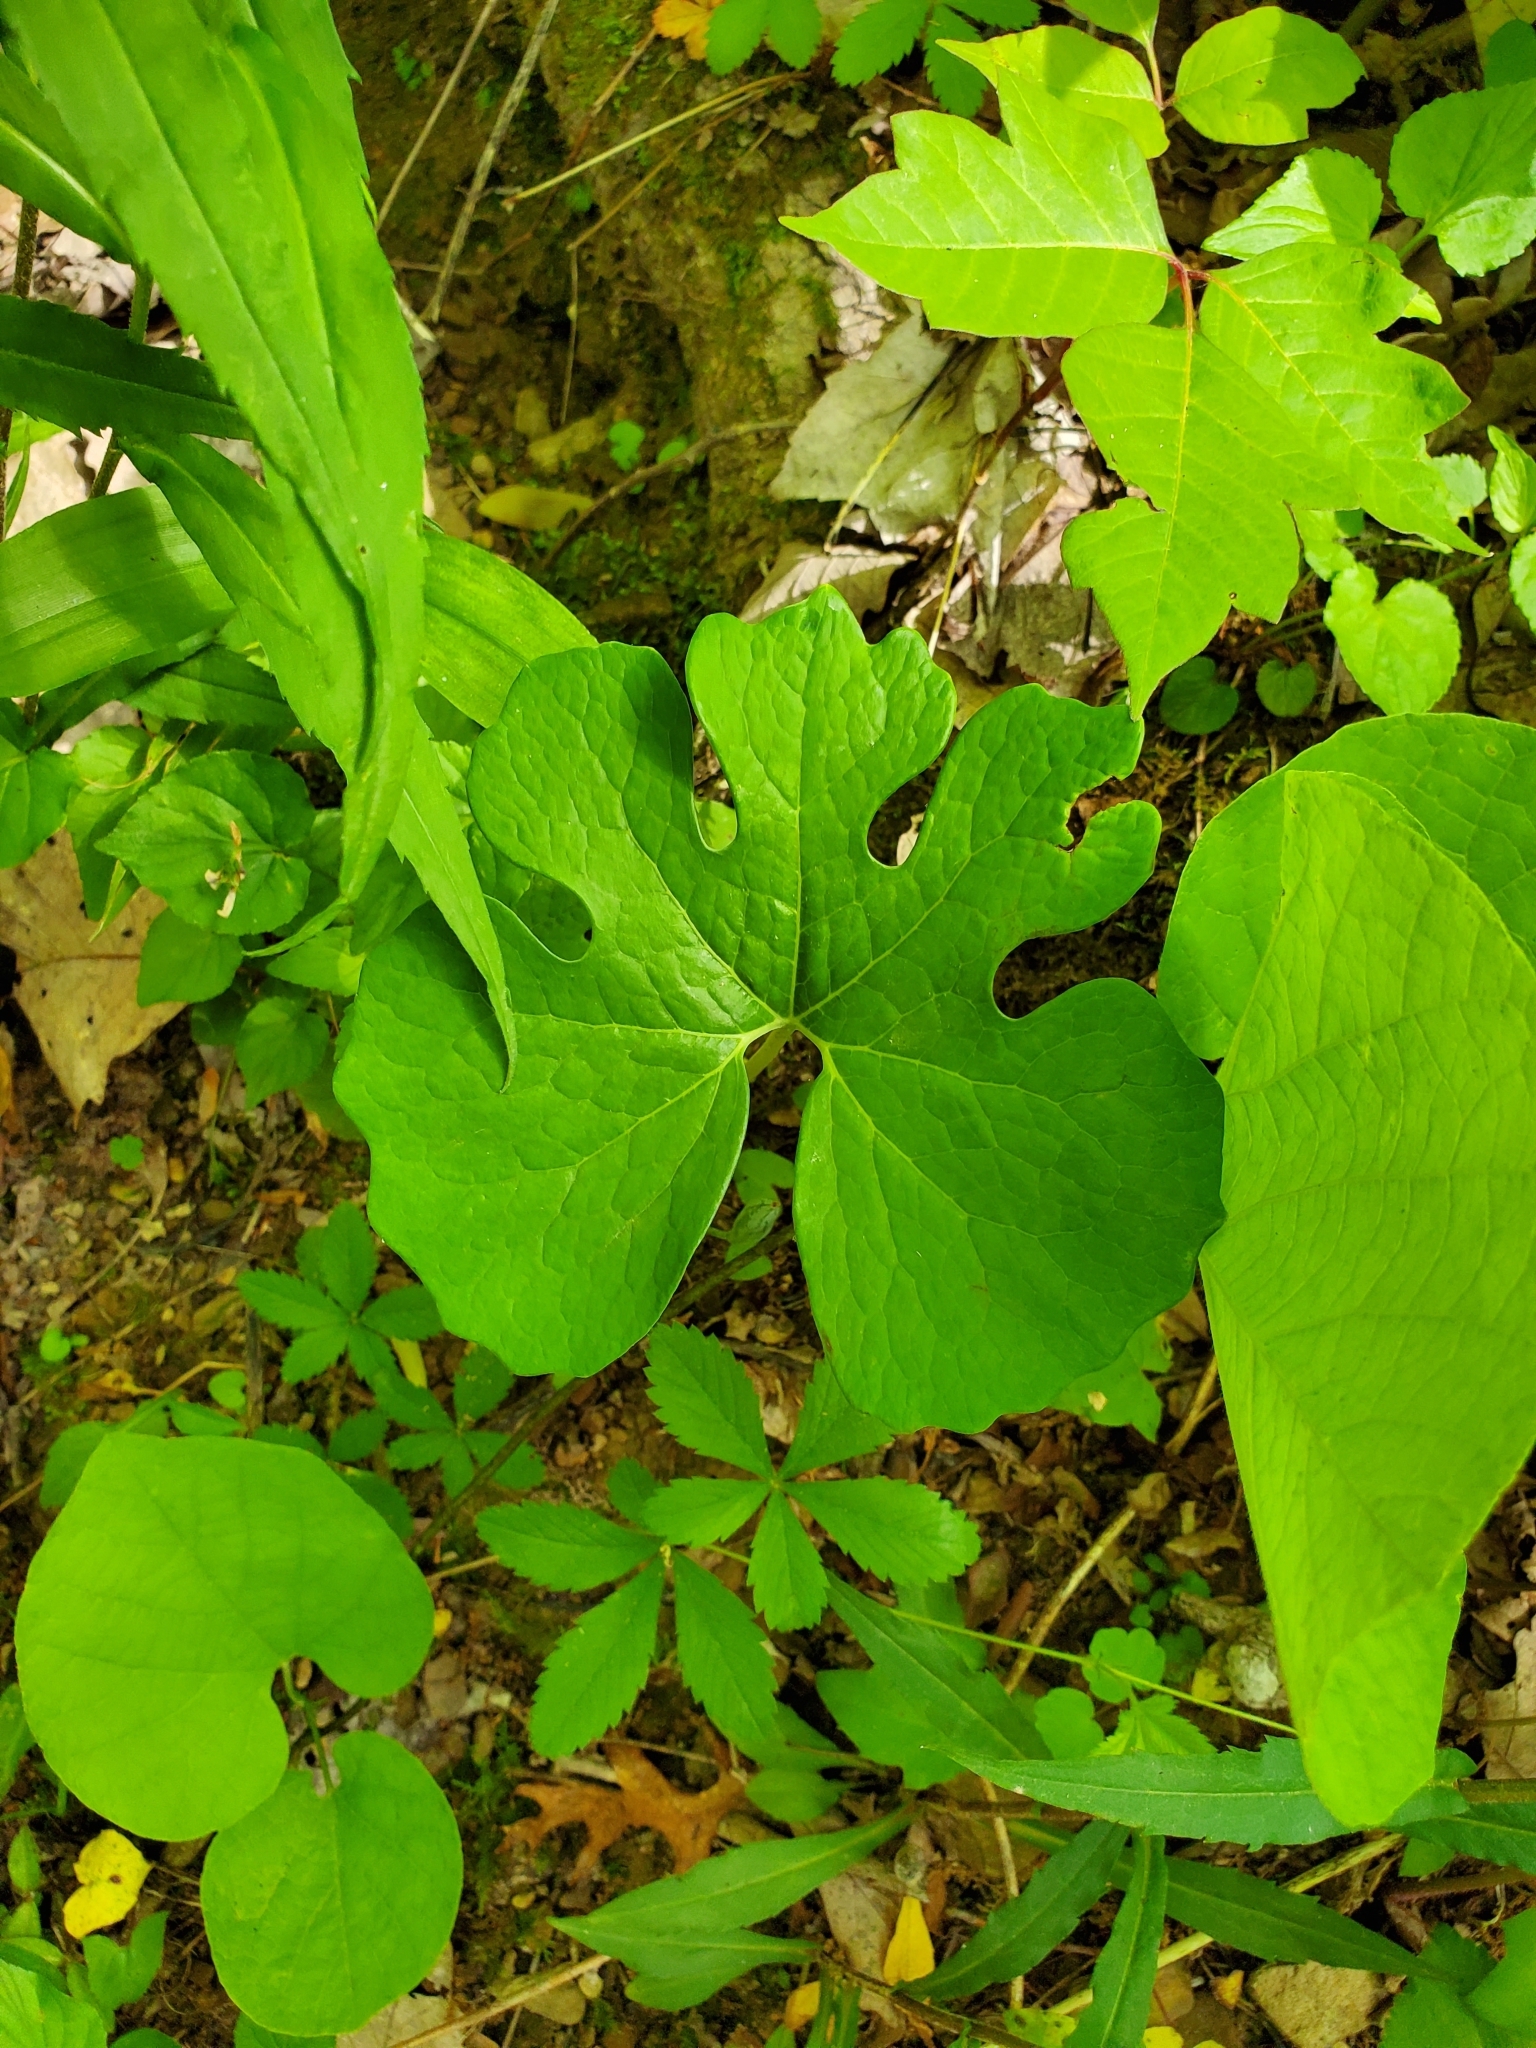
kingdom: Plantae
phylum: Tracheophyta
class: Magnoliopsida
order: Ranunculales
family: Papaveraceae
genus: Sanguinaria
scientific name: Sanguinaria canadensis
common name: Bloodroot
